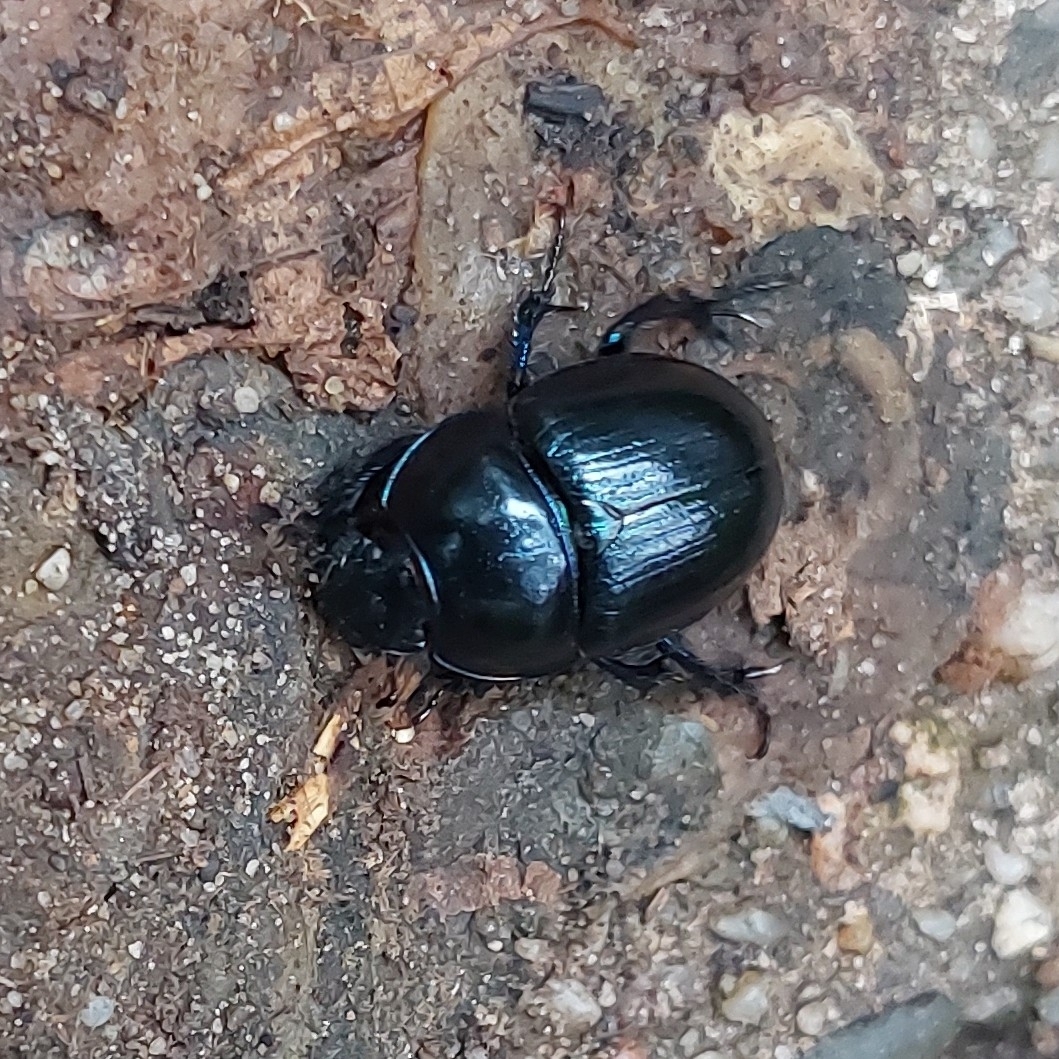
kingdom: Animalia
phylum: Arthropoda
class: Insecta
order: Coleoptera
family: Geotrupidae
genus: Anoplotrupes
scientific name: Anoplotrupes stercorosus
